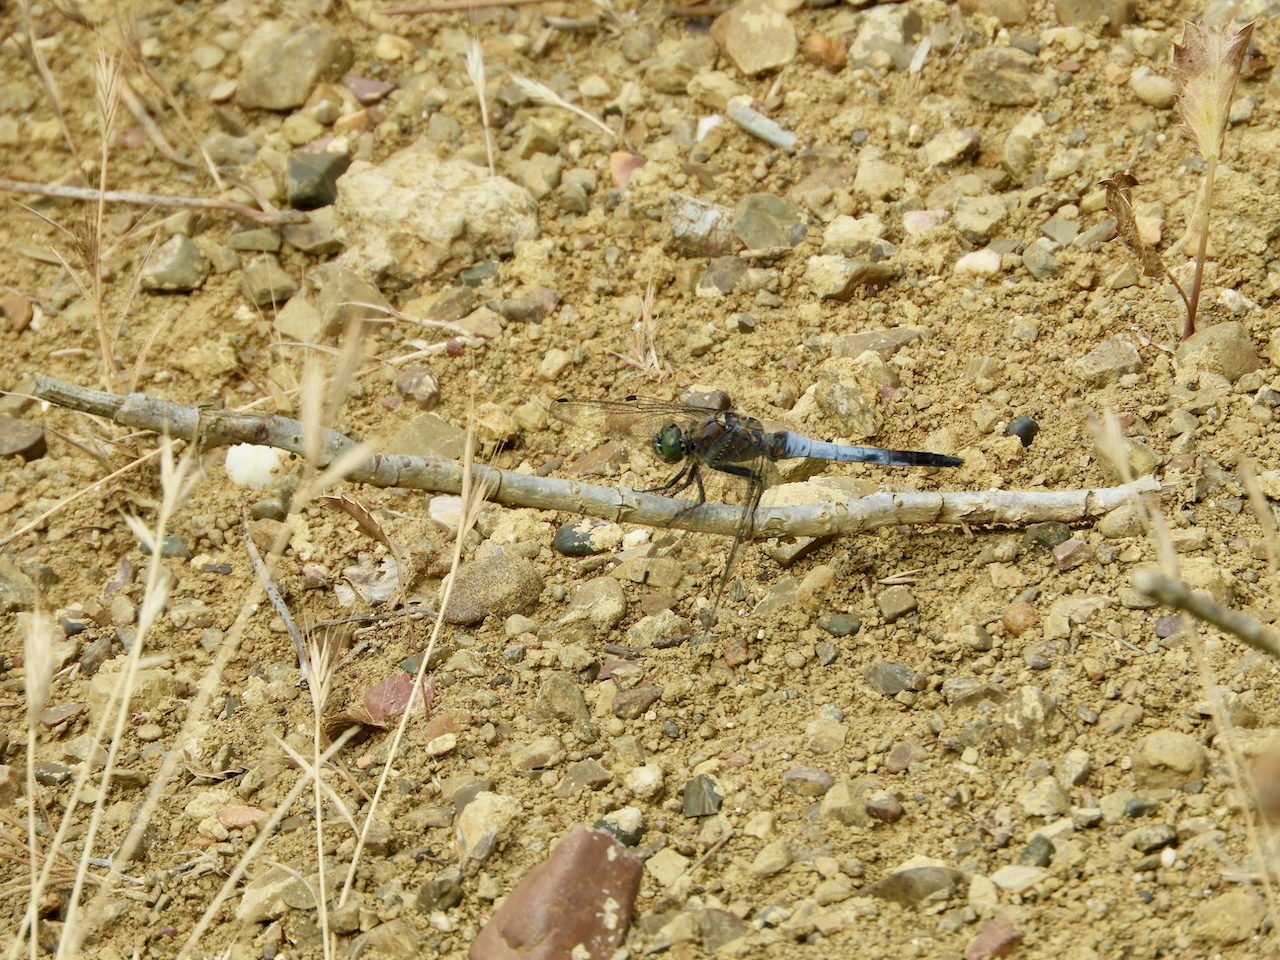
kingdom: Animalia
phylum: Arthropoda
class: Insecta
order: Odonata
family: Libellulidae
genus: Orthetrum
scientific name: Orthetrum cancellatum
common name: Black-tailed skimmer
